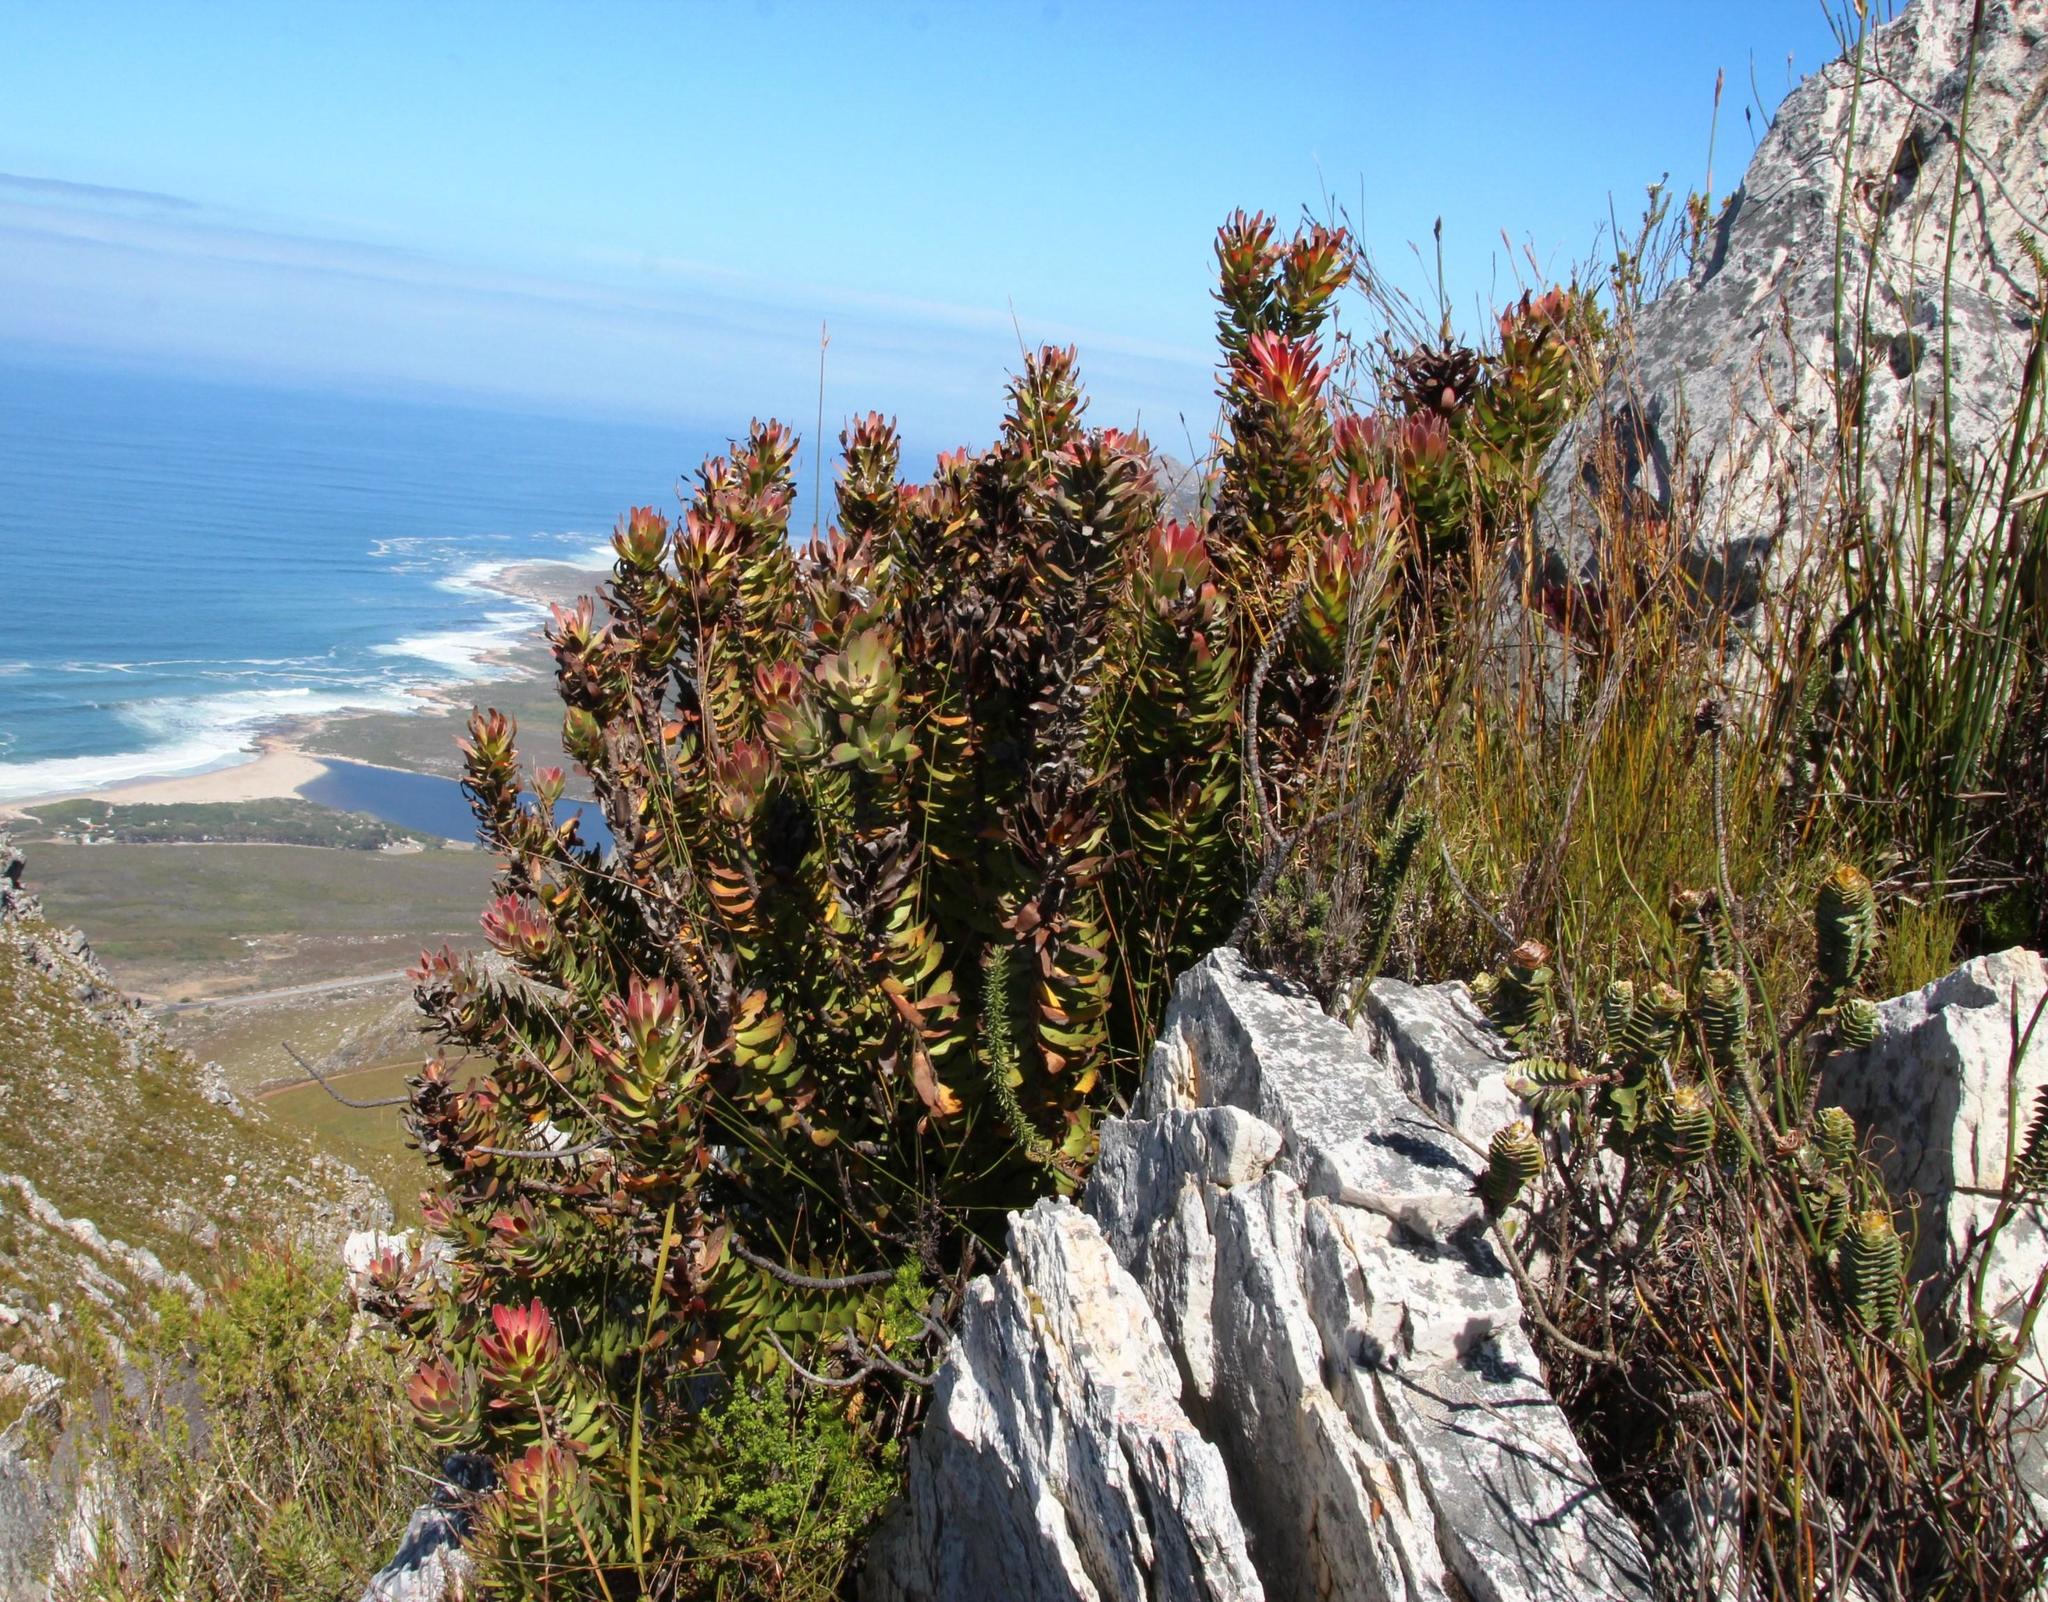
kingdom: Plantae
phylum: Tracheophyta
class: Magnoliopsida
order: Proteales
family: Proteaceae
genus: Mimetes
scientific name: Mimetes cucullatus
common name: Common pagoda
